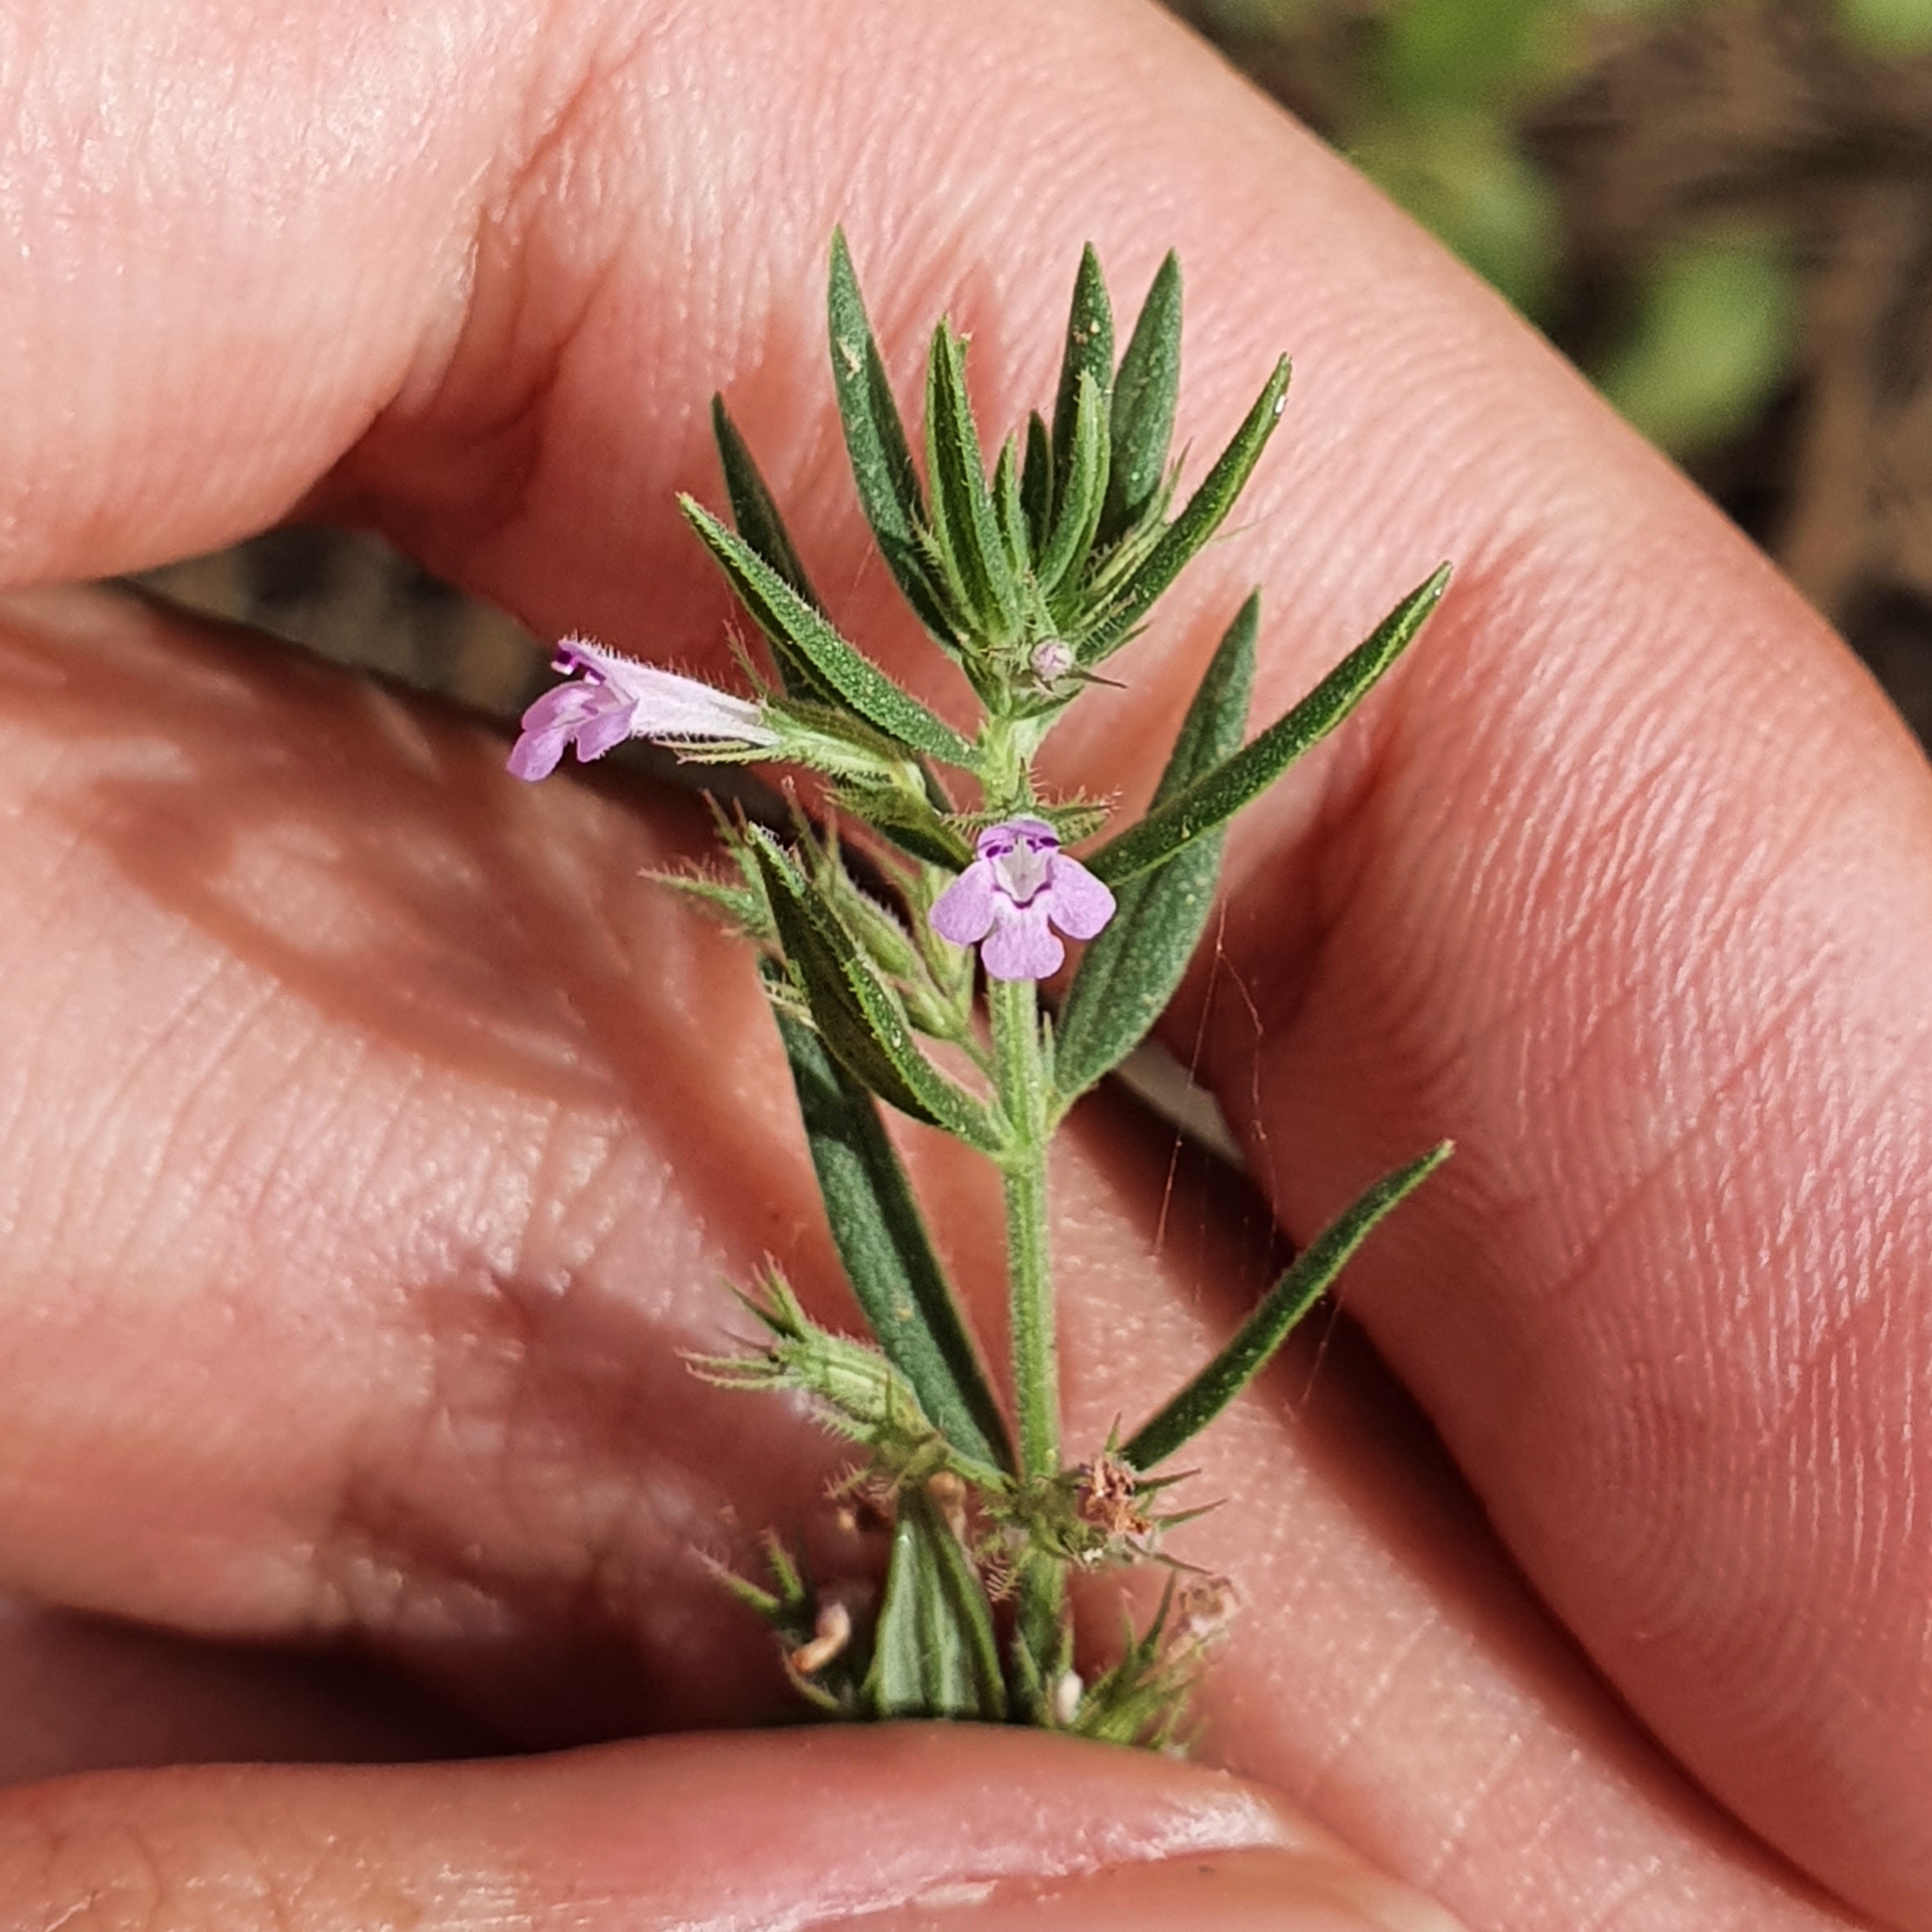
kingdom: Plantae
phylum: Tracheophyta
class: Magnoliopsida
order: Lamiales
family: Lamiaceae
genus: Micromeria
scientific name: Micromeria graeca
